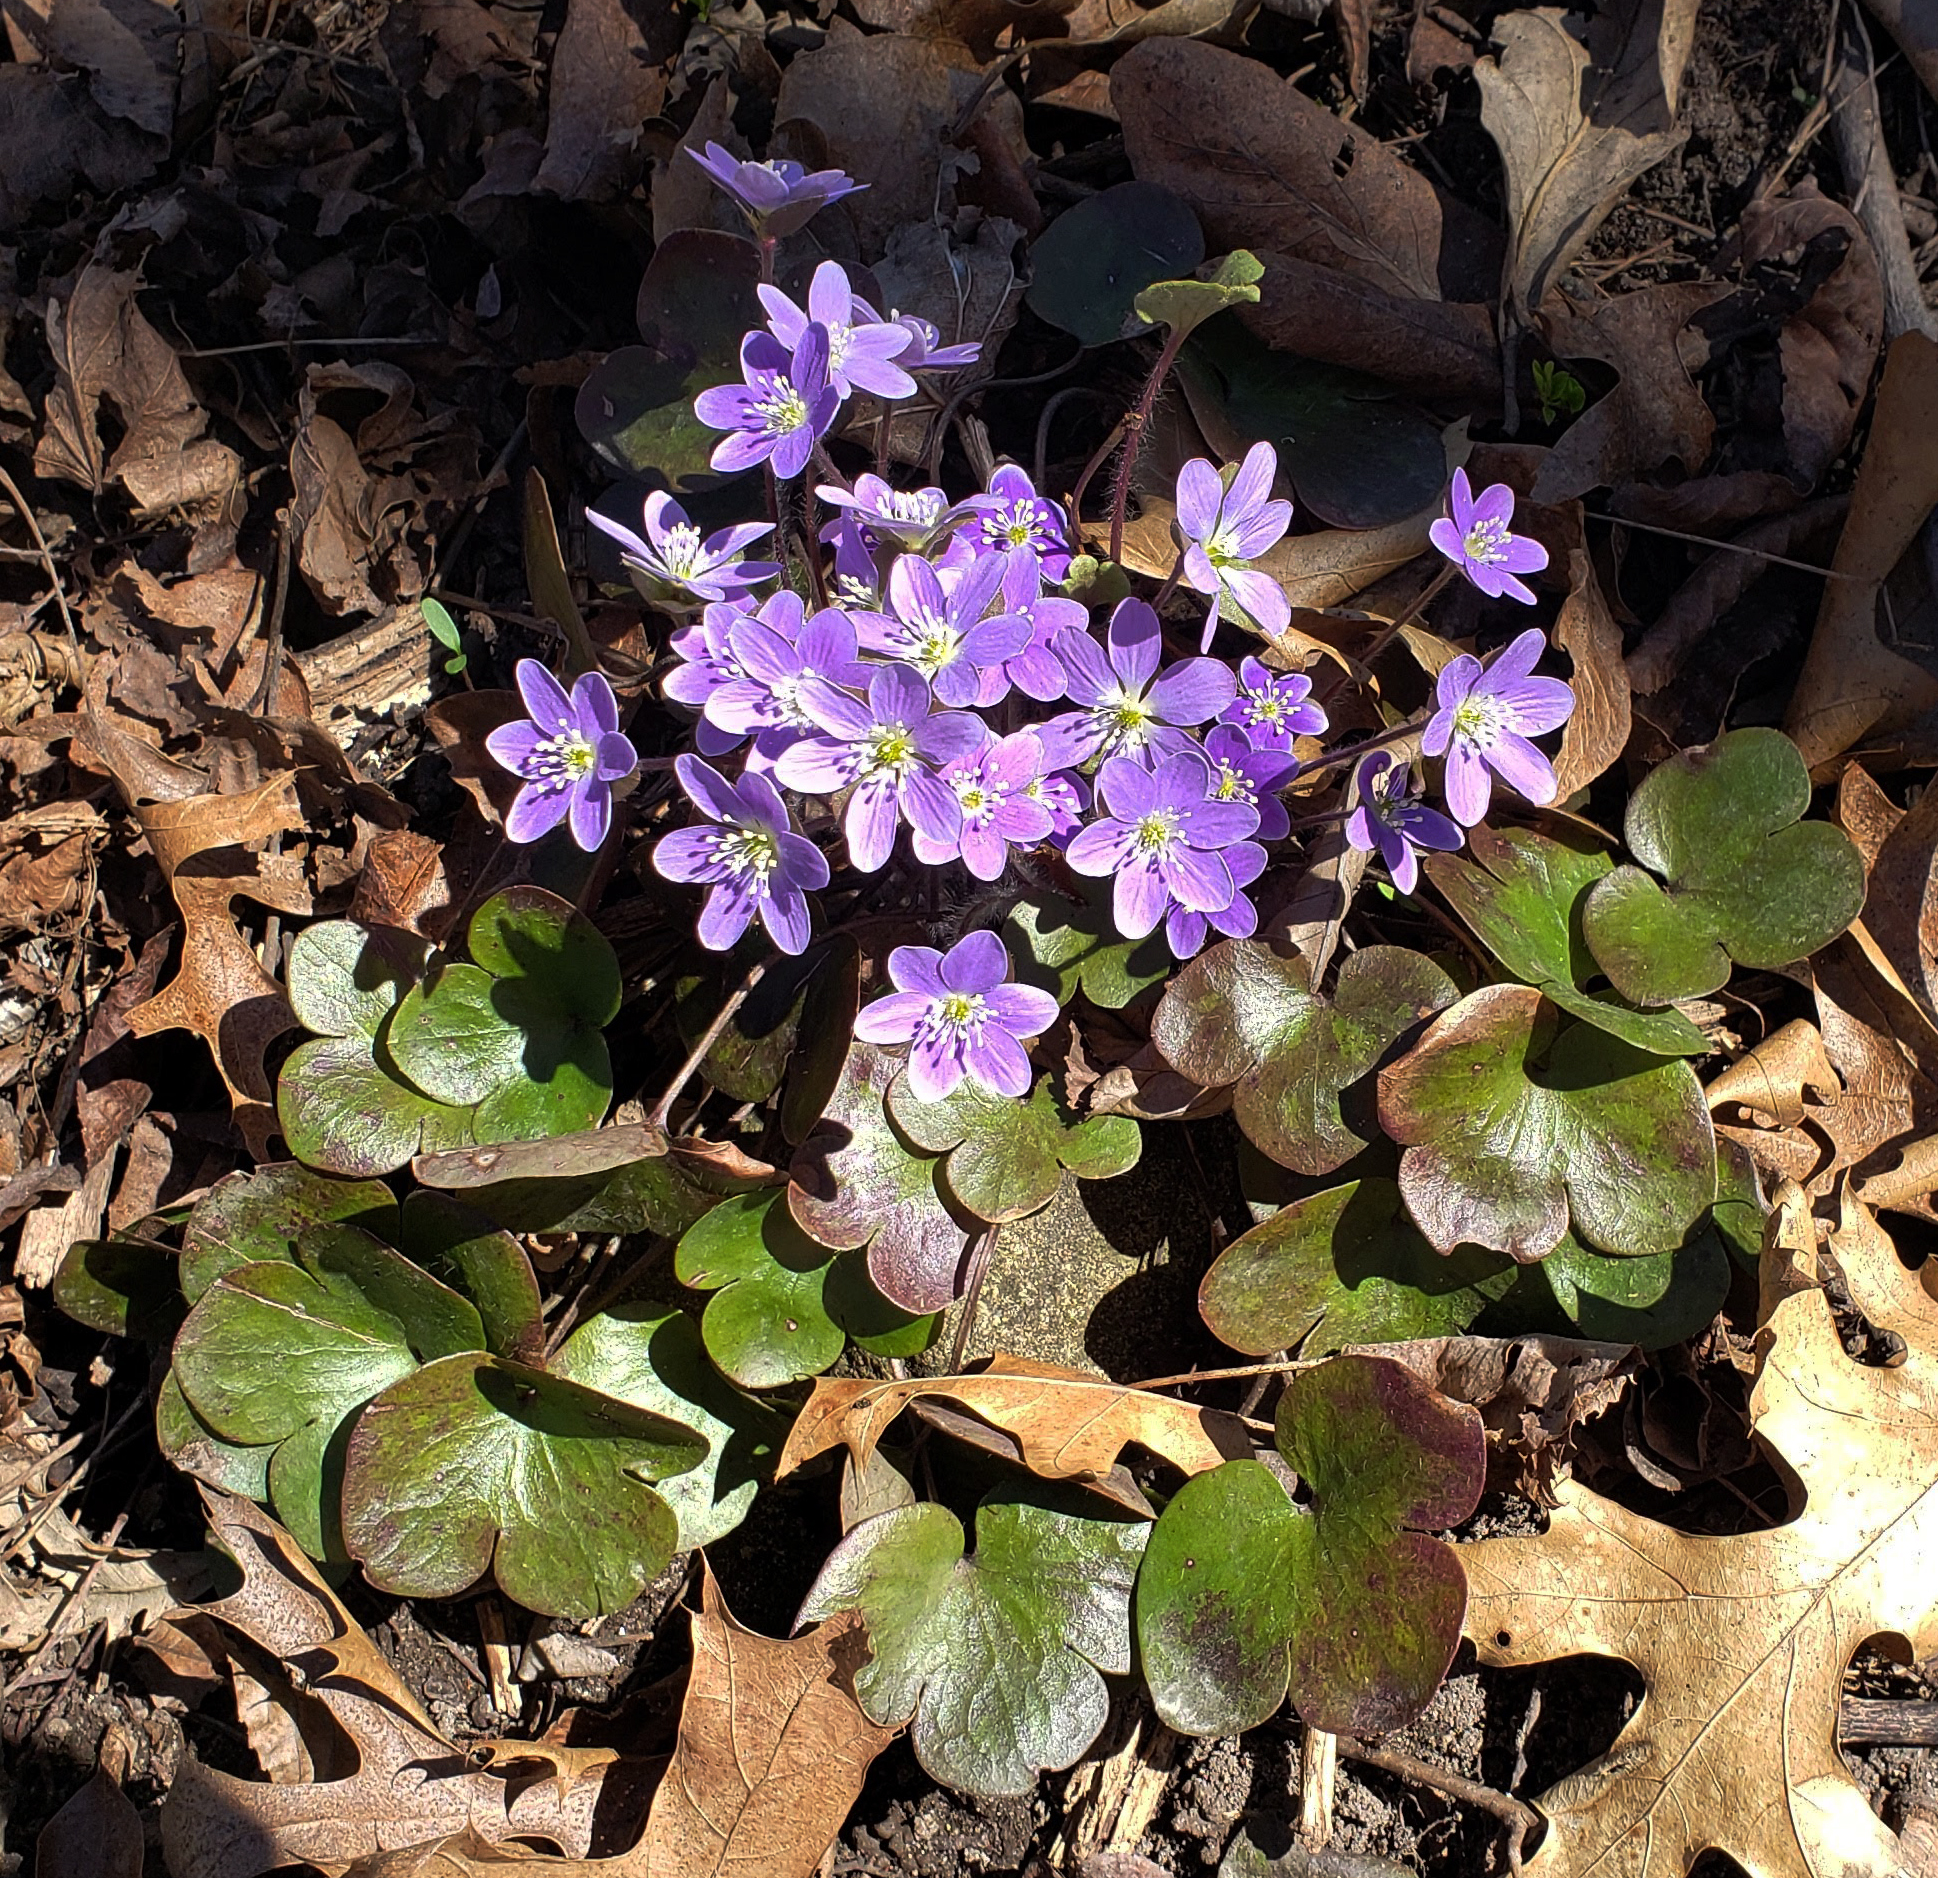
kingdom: Plantae
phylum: Tracheophyta
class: Magnoliopsida
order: Ranunculales
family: Ranunculaceae
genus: Hepatica
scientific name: Hepatica americana
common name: American hepatica
